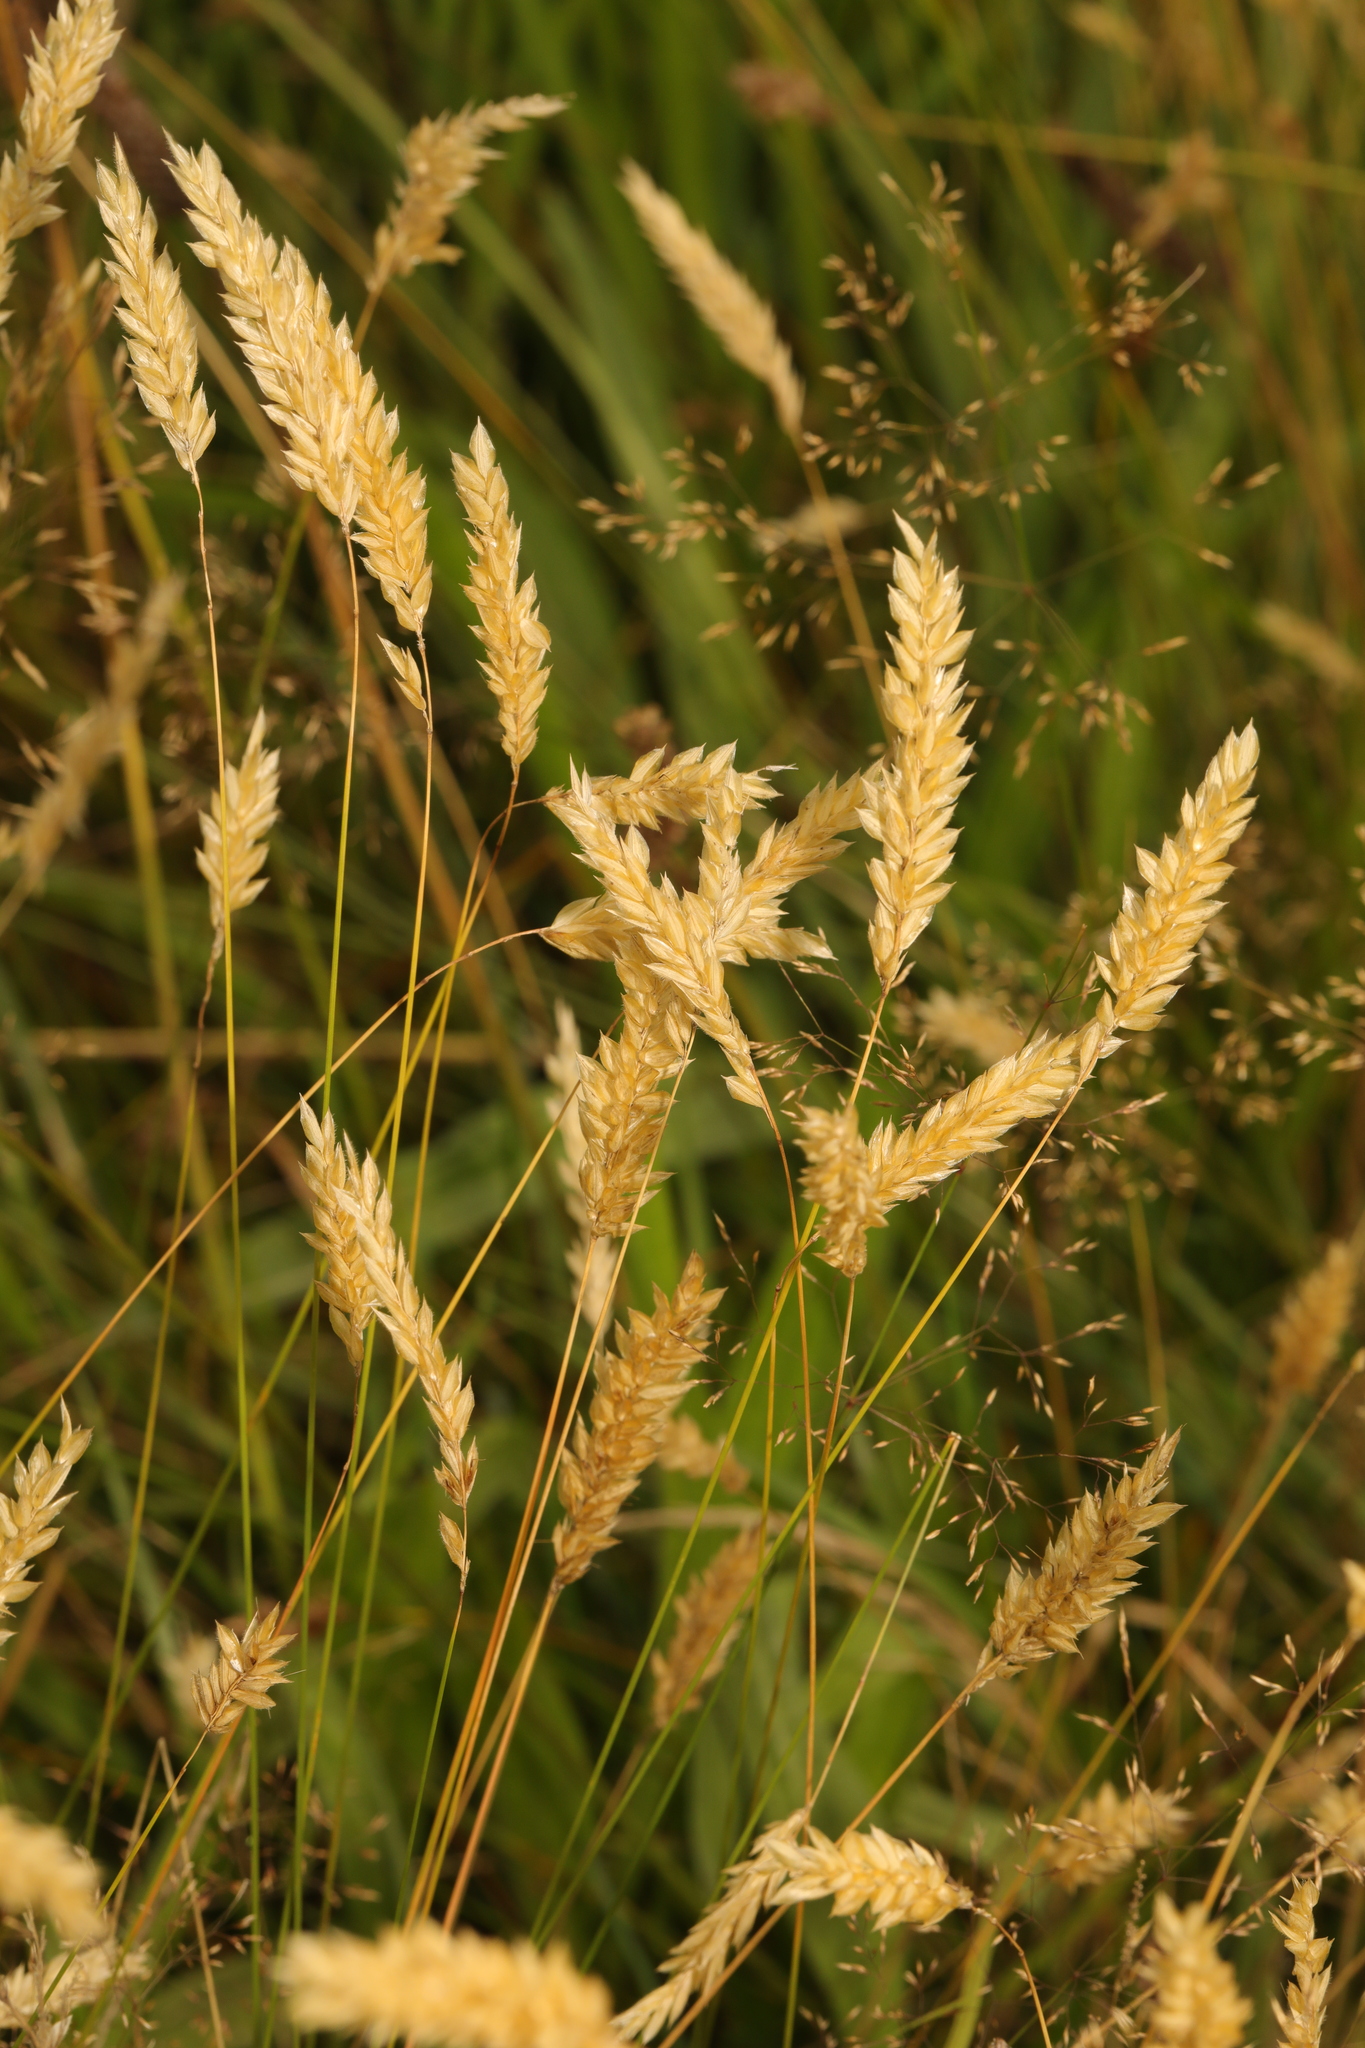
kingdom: Plantae
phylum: Tracheophyta
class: Liliopsida
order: Poales
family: Poaceae
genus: Anthoxanthum
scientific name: Anthoxanthum odoratum
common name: Sweet vernalgrass
